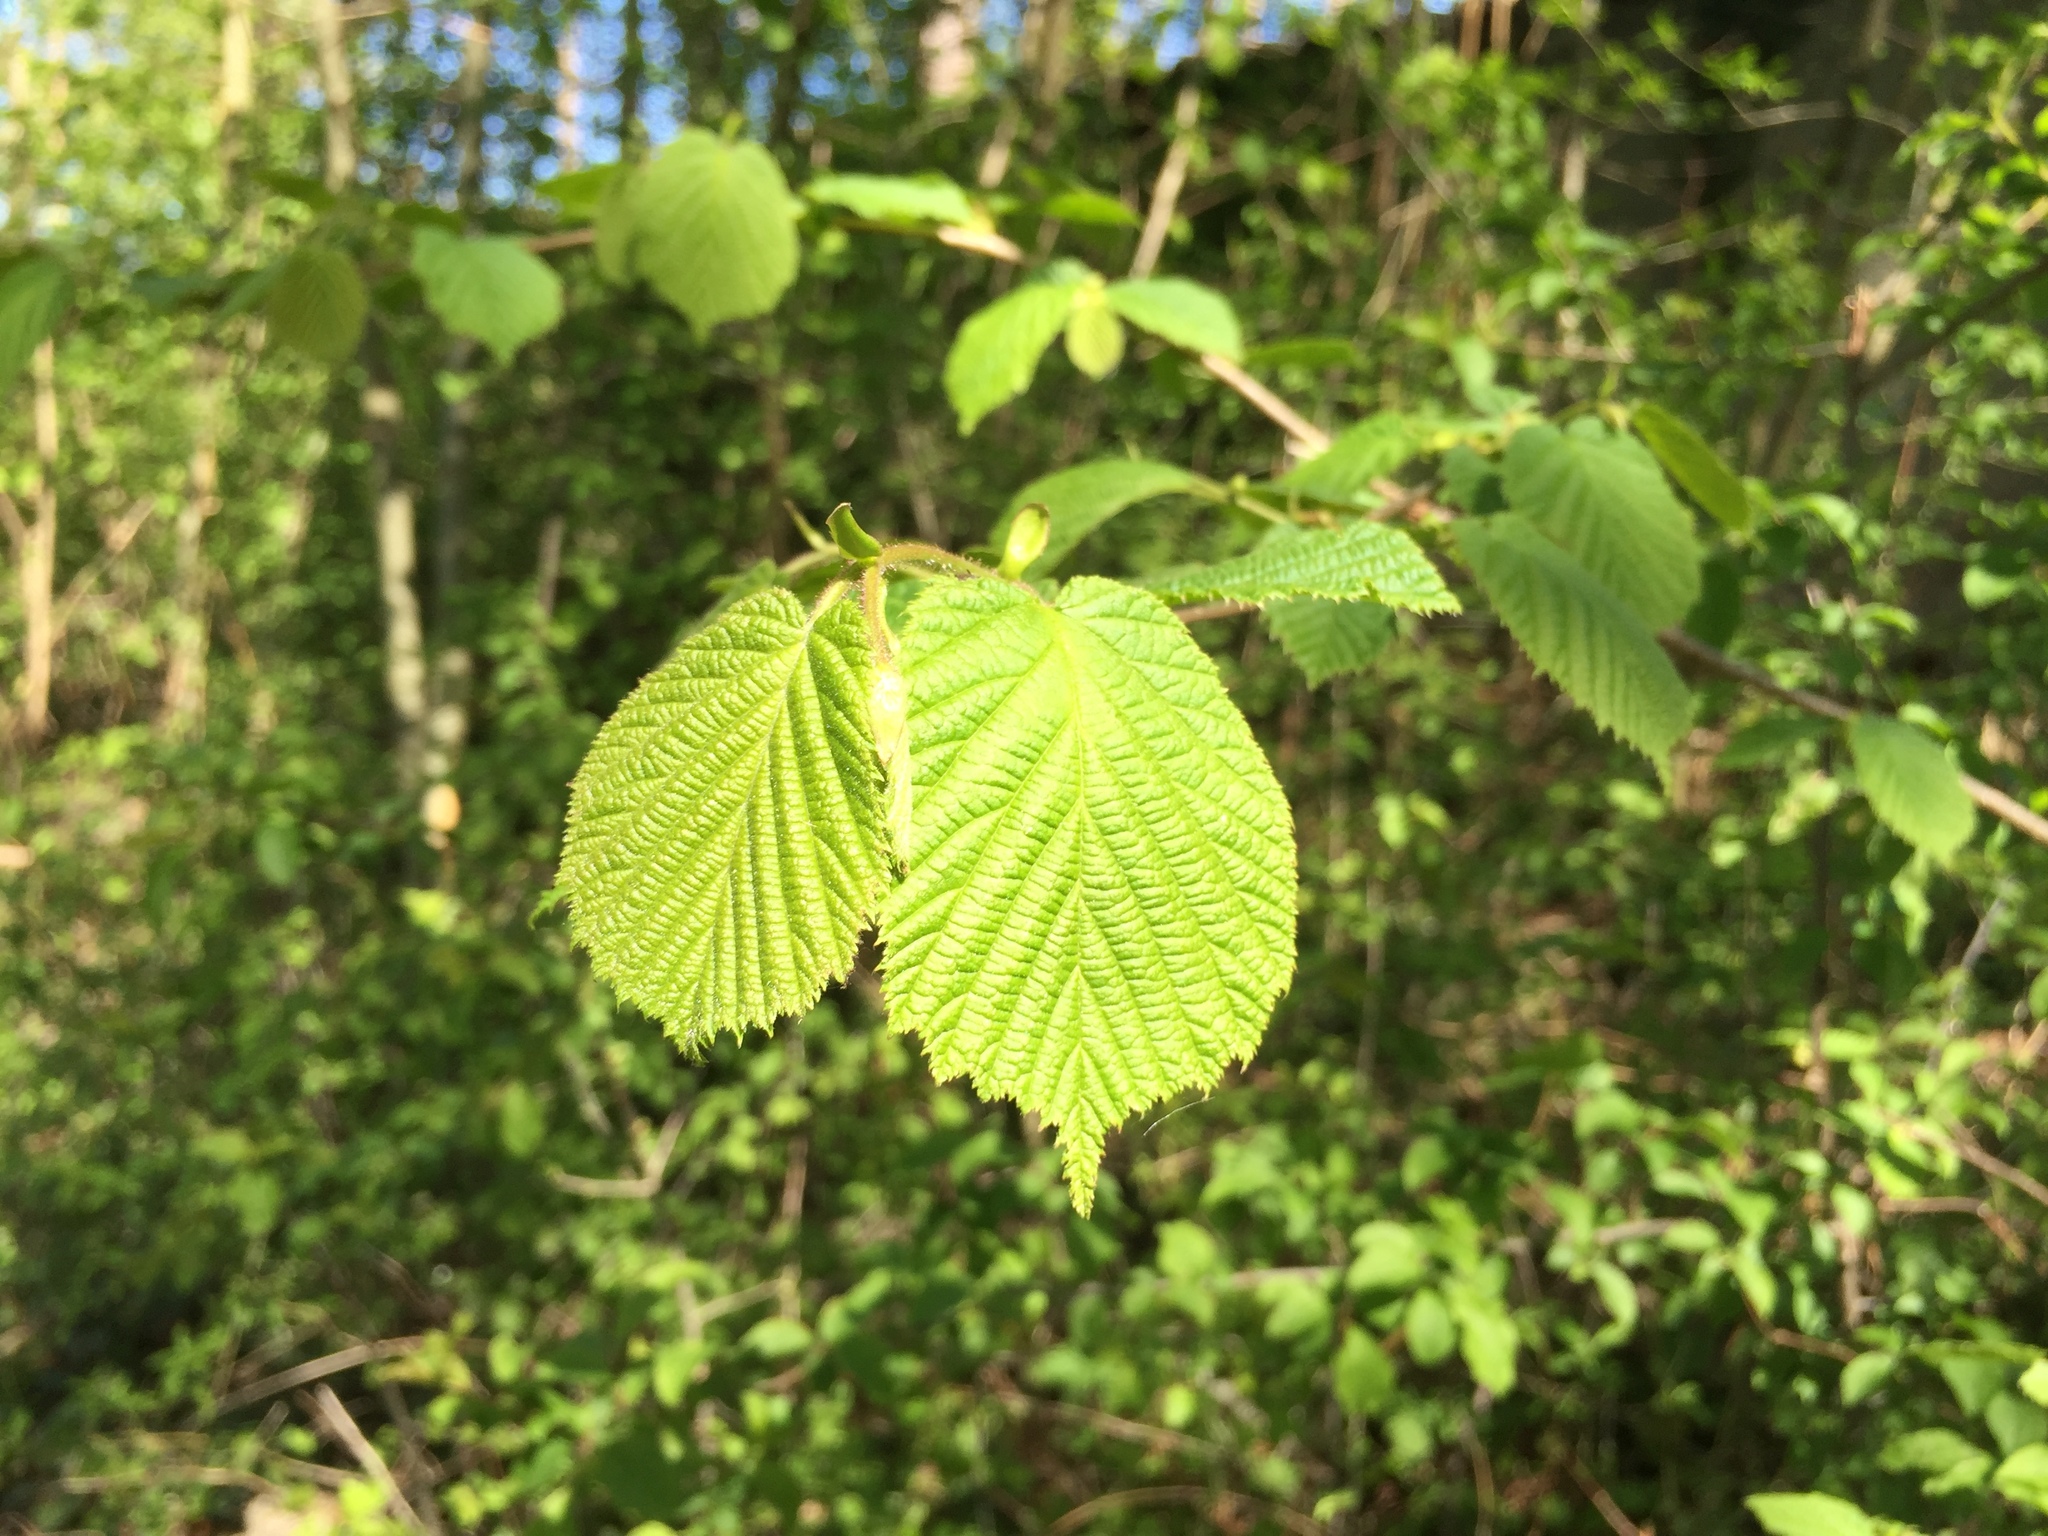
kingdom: Plantae
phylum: Tracheophyta
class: Magnoliopsida
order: Fagales
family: Betulaceae
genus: Corylus
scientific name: Corylus avellana
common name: European hazel
